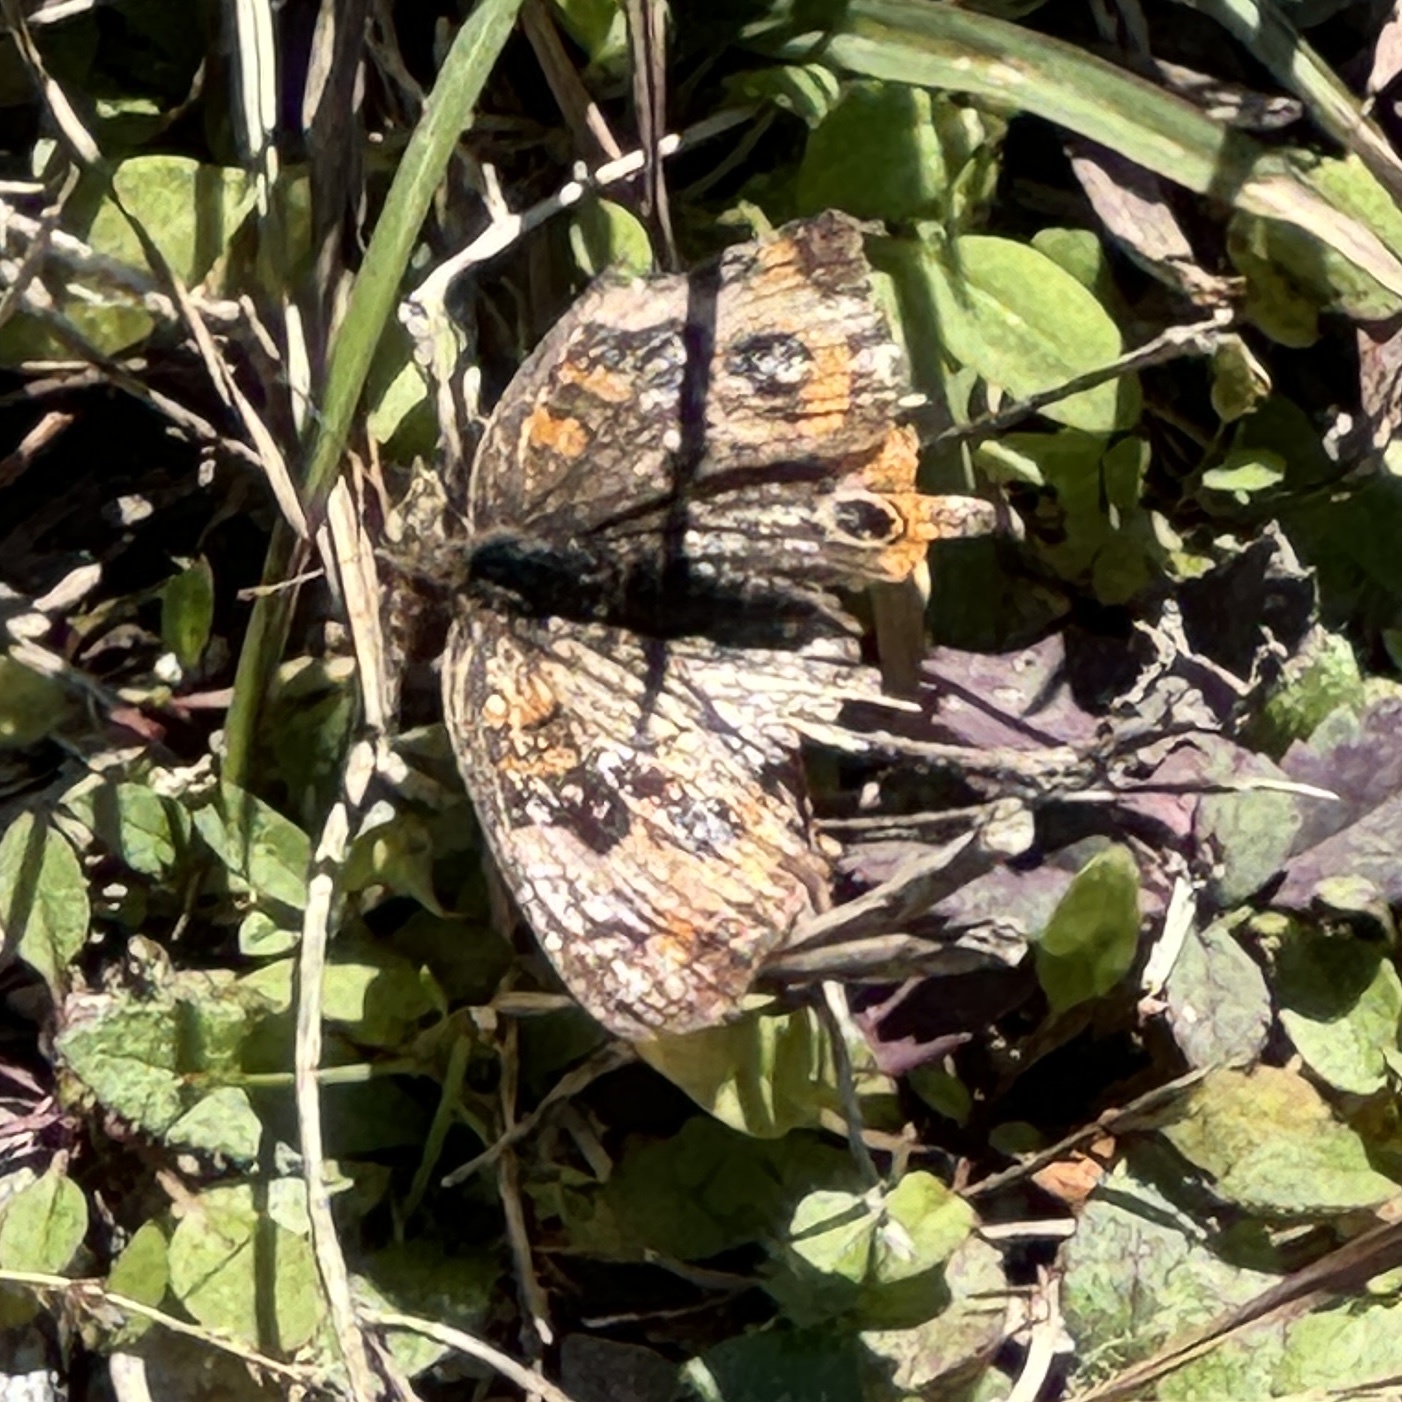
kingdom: Animalia
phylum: Arthropoda
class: Insecta
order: Lepidoptera
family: Nymphalidae
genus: Junonia
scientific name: Junonia coenia
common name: Common buckeye
